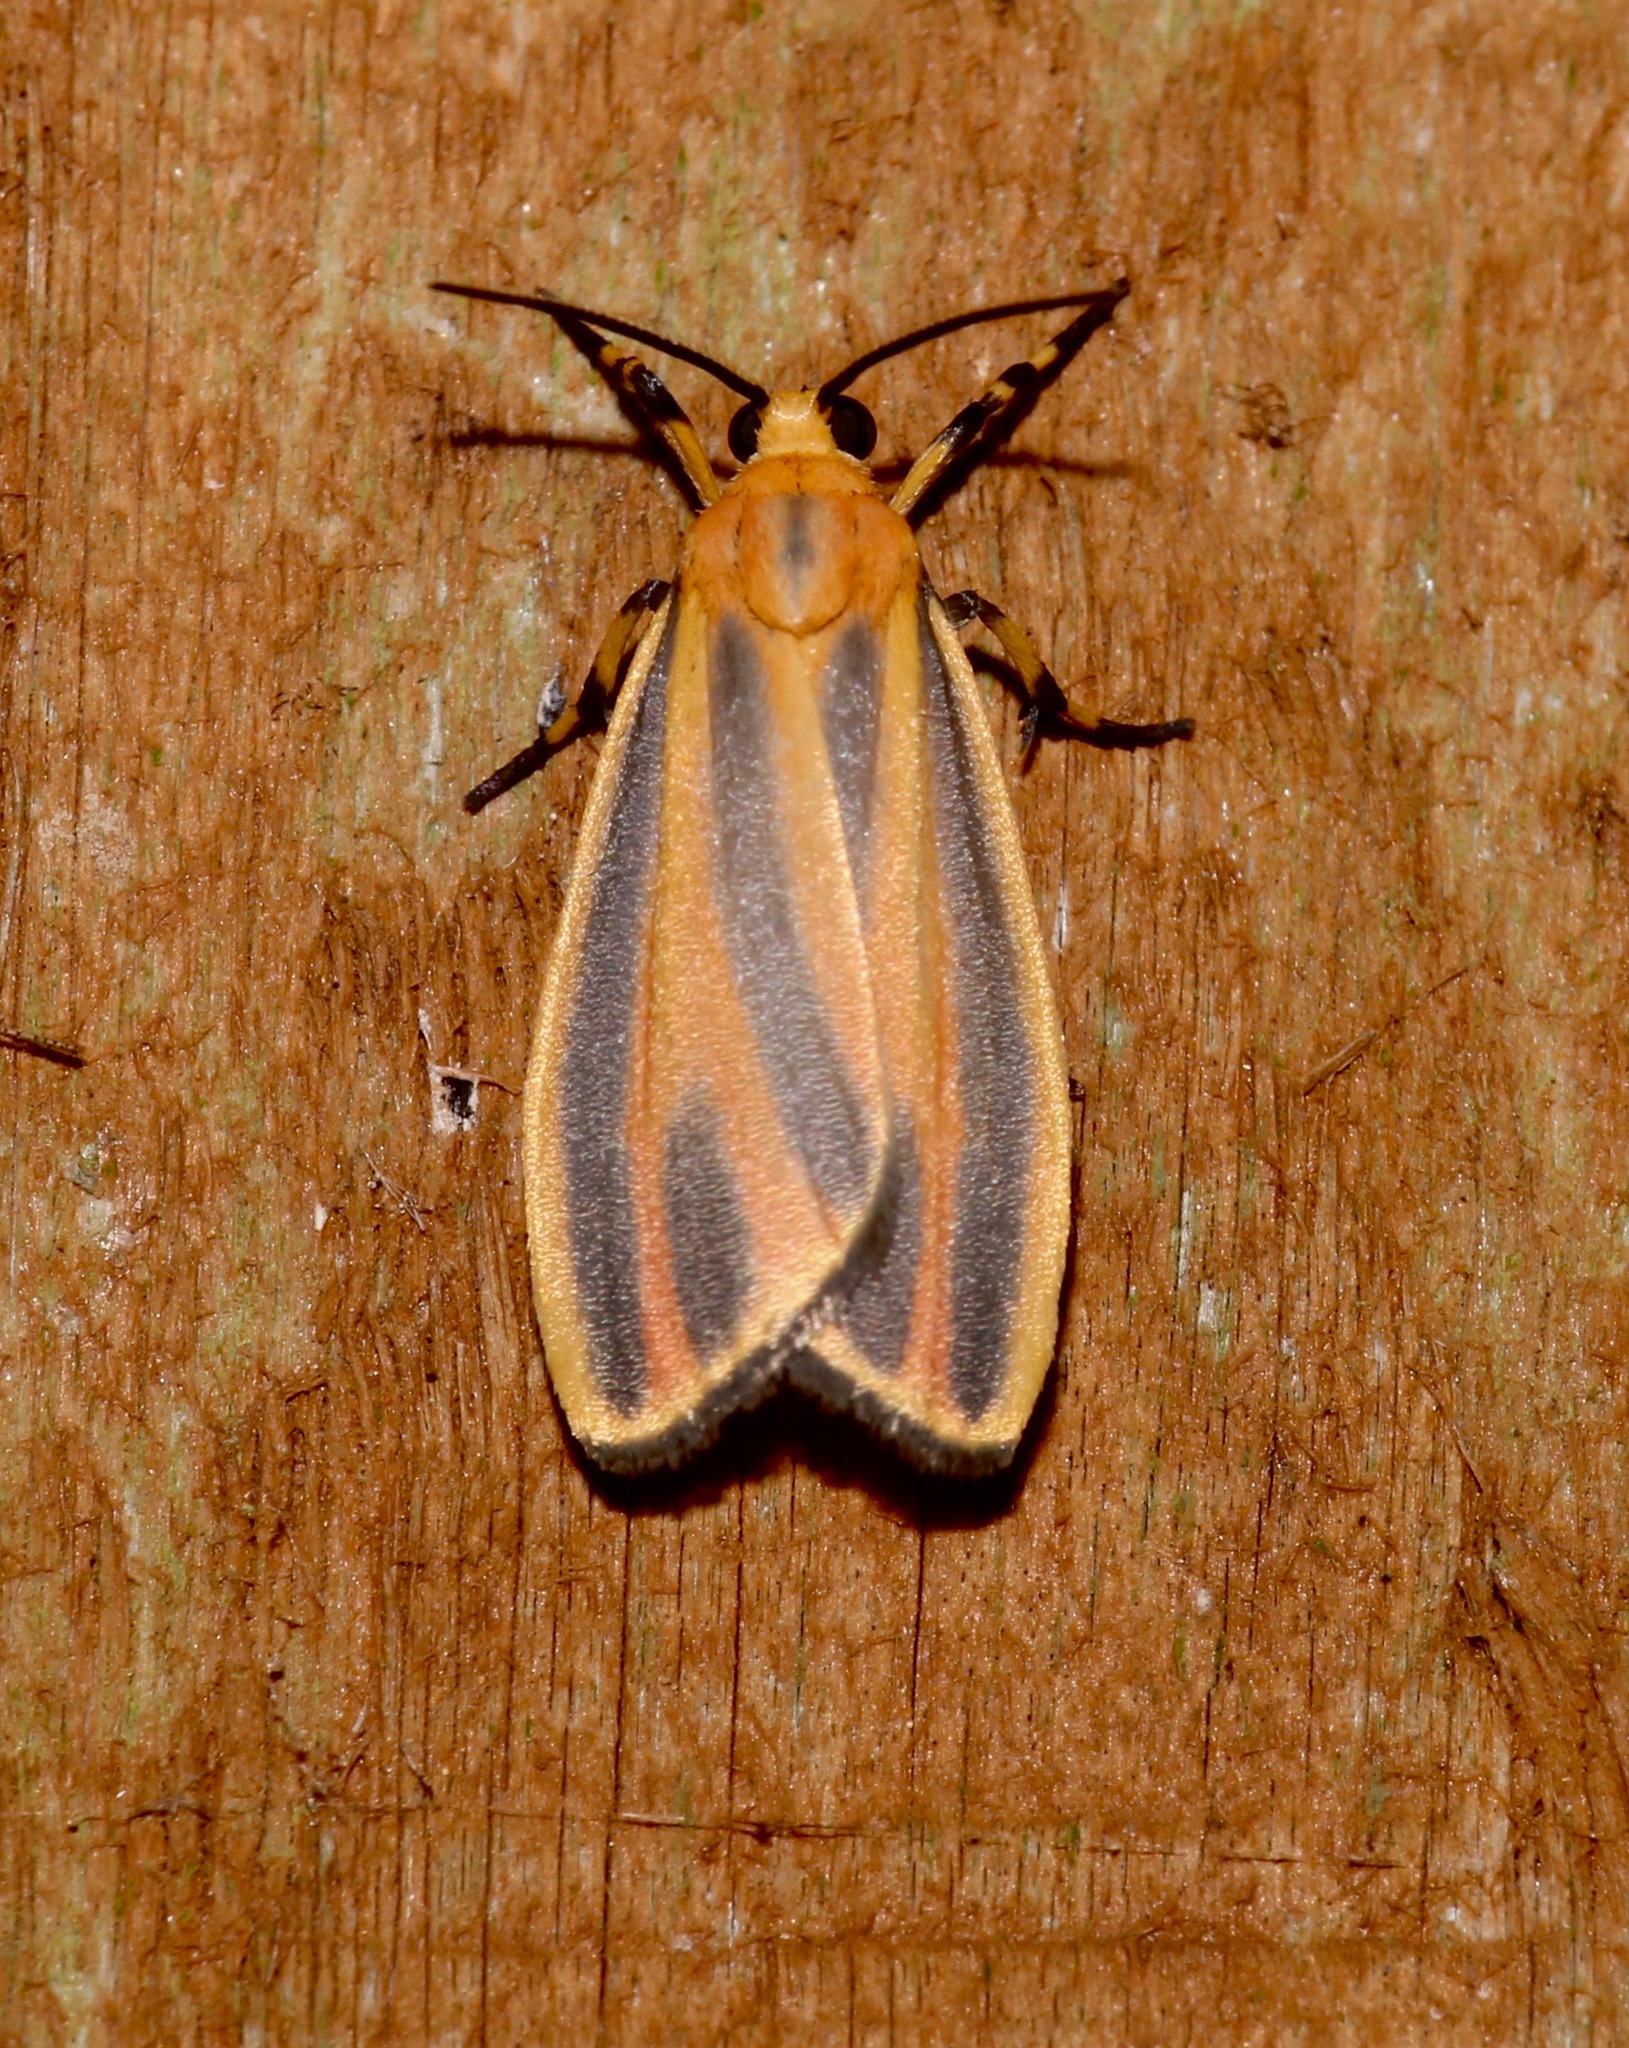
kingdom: Animalia
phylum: Arthropoda
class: Insecta
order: Lepidoptera
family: Erebidae
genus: Hypoprepia
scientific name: Hypoprepia fucosa
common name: Painted lichen moth
